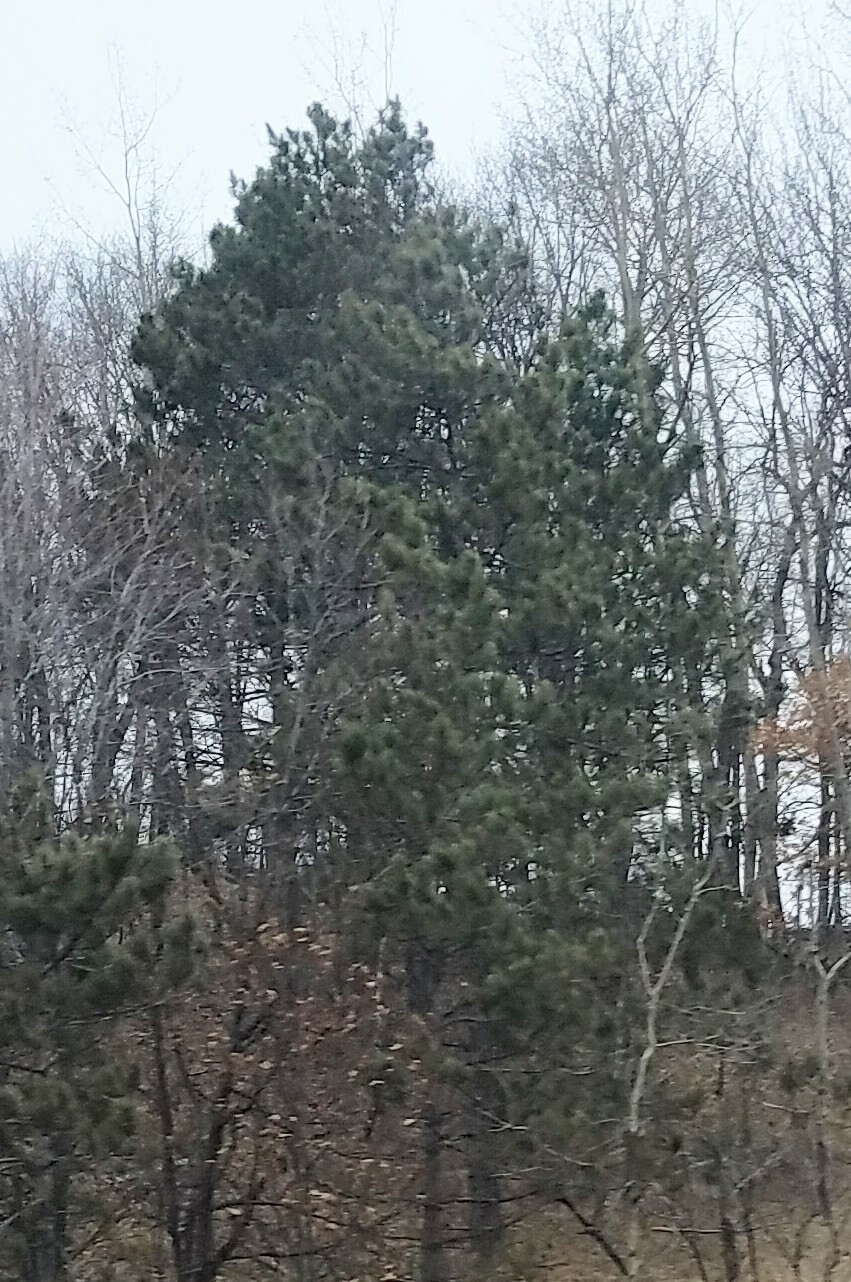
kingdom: Plantae
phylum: Tracheophyta
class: Pinopsida
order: Pinales
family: Pinaceae
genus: Pinus
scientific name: Pinus resinosa
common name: Norway pine
